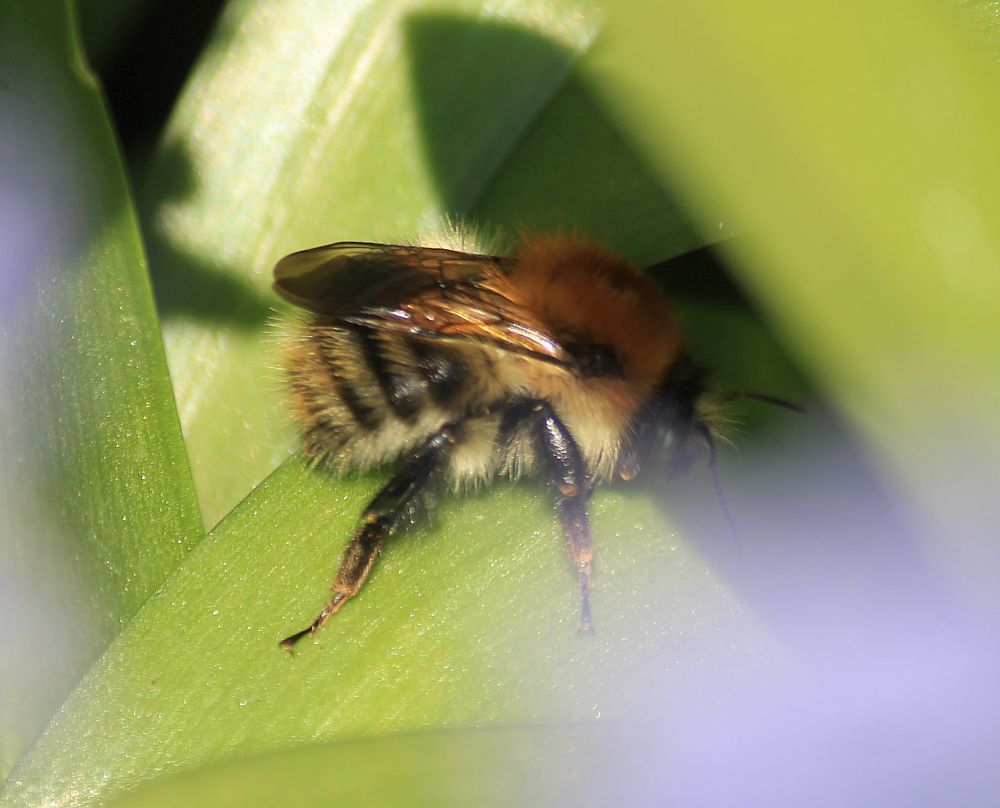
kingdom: Animalia
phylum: Arthropoda
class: Insecta
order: Hymenoptera
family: Apidae
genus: Bombus
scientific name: Bombus pascuorum
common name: Common carder bee
